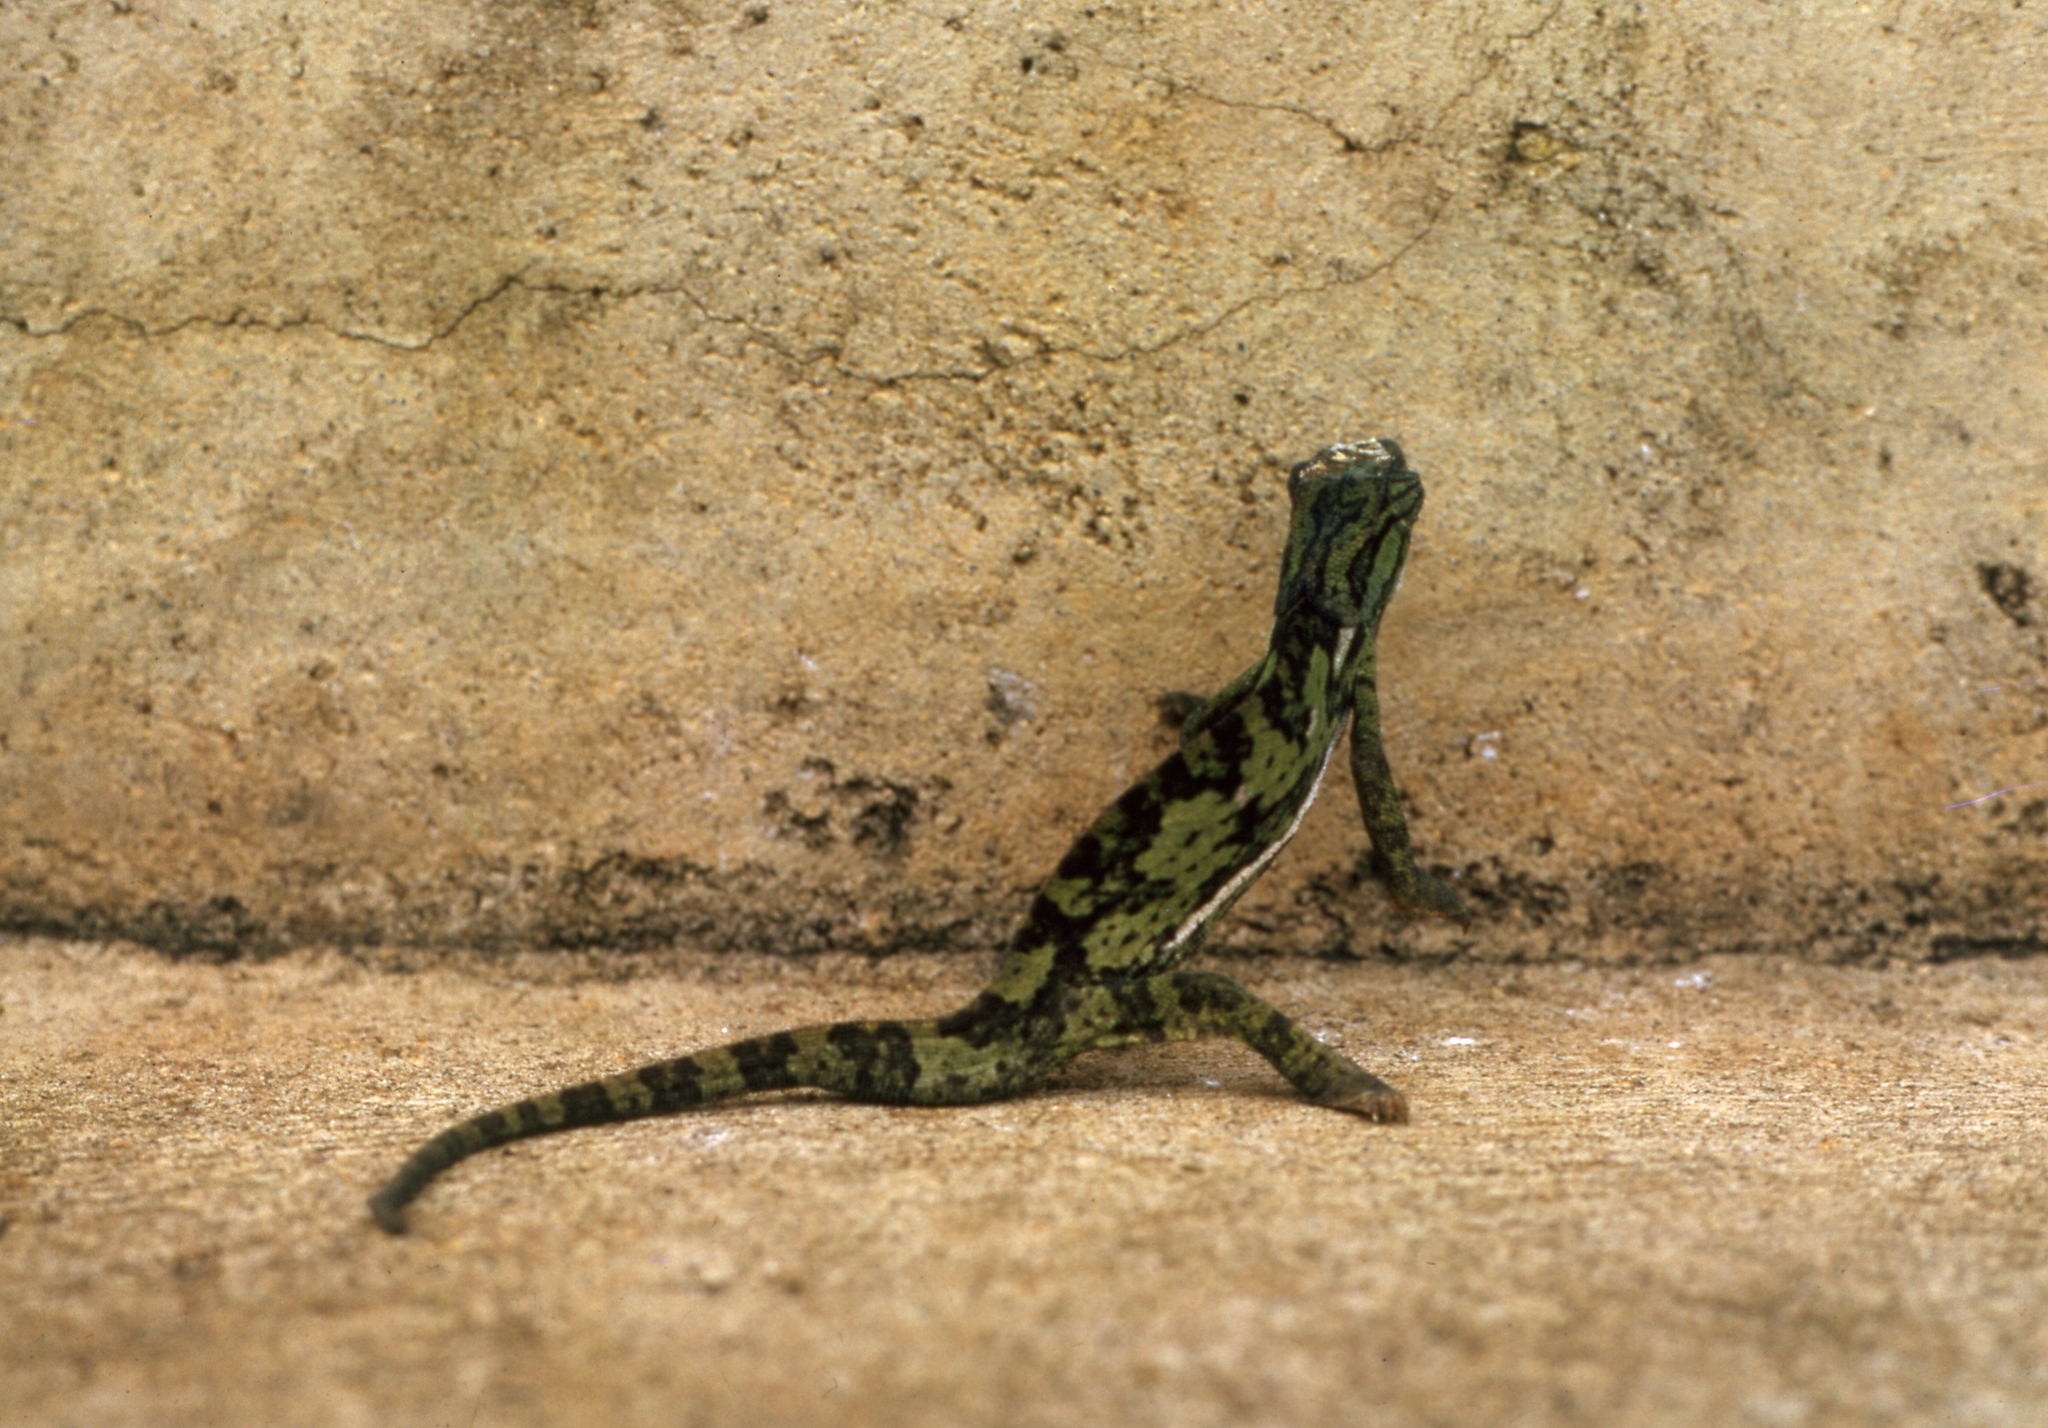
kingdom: Animalia
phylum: Chordata
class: Squamata
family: Chamaeleonidae
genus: Chamaeleo
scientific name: Chamaeleo dilepis
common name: Flapneck chameleon
